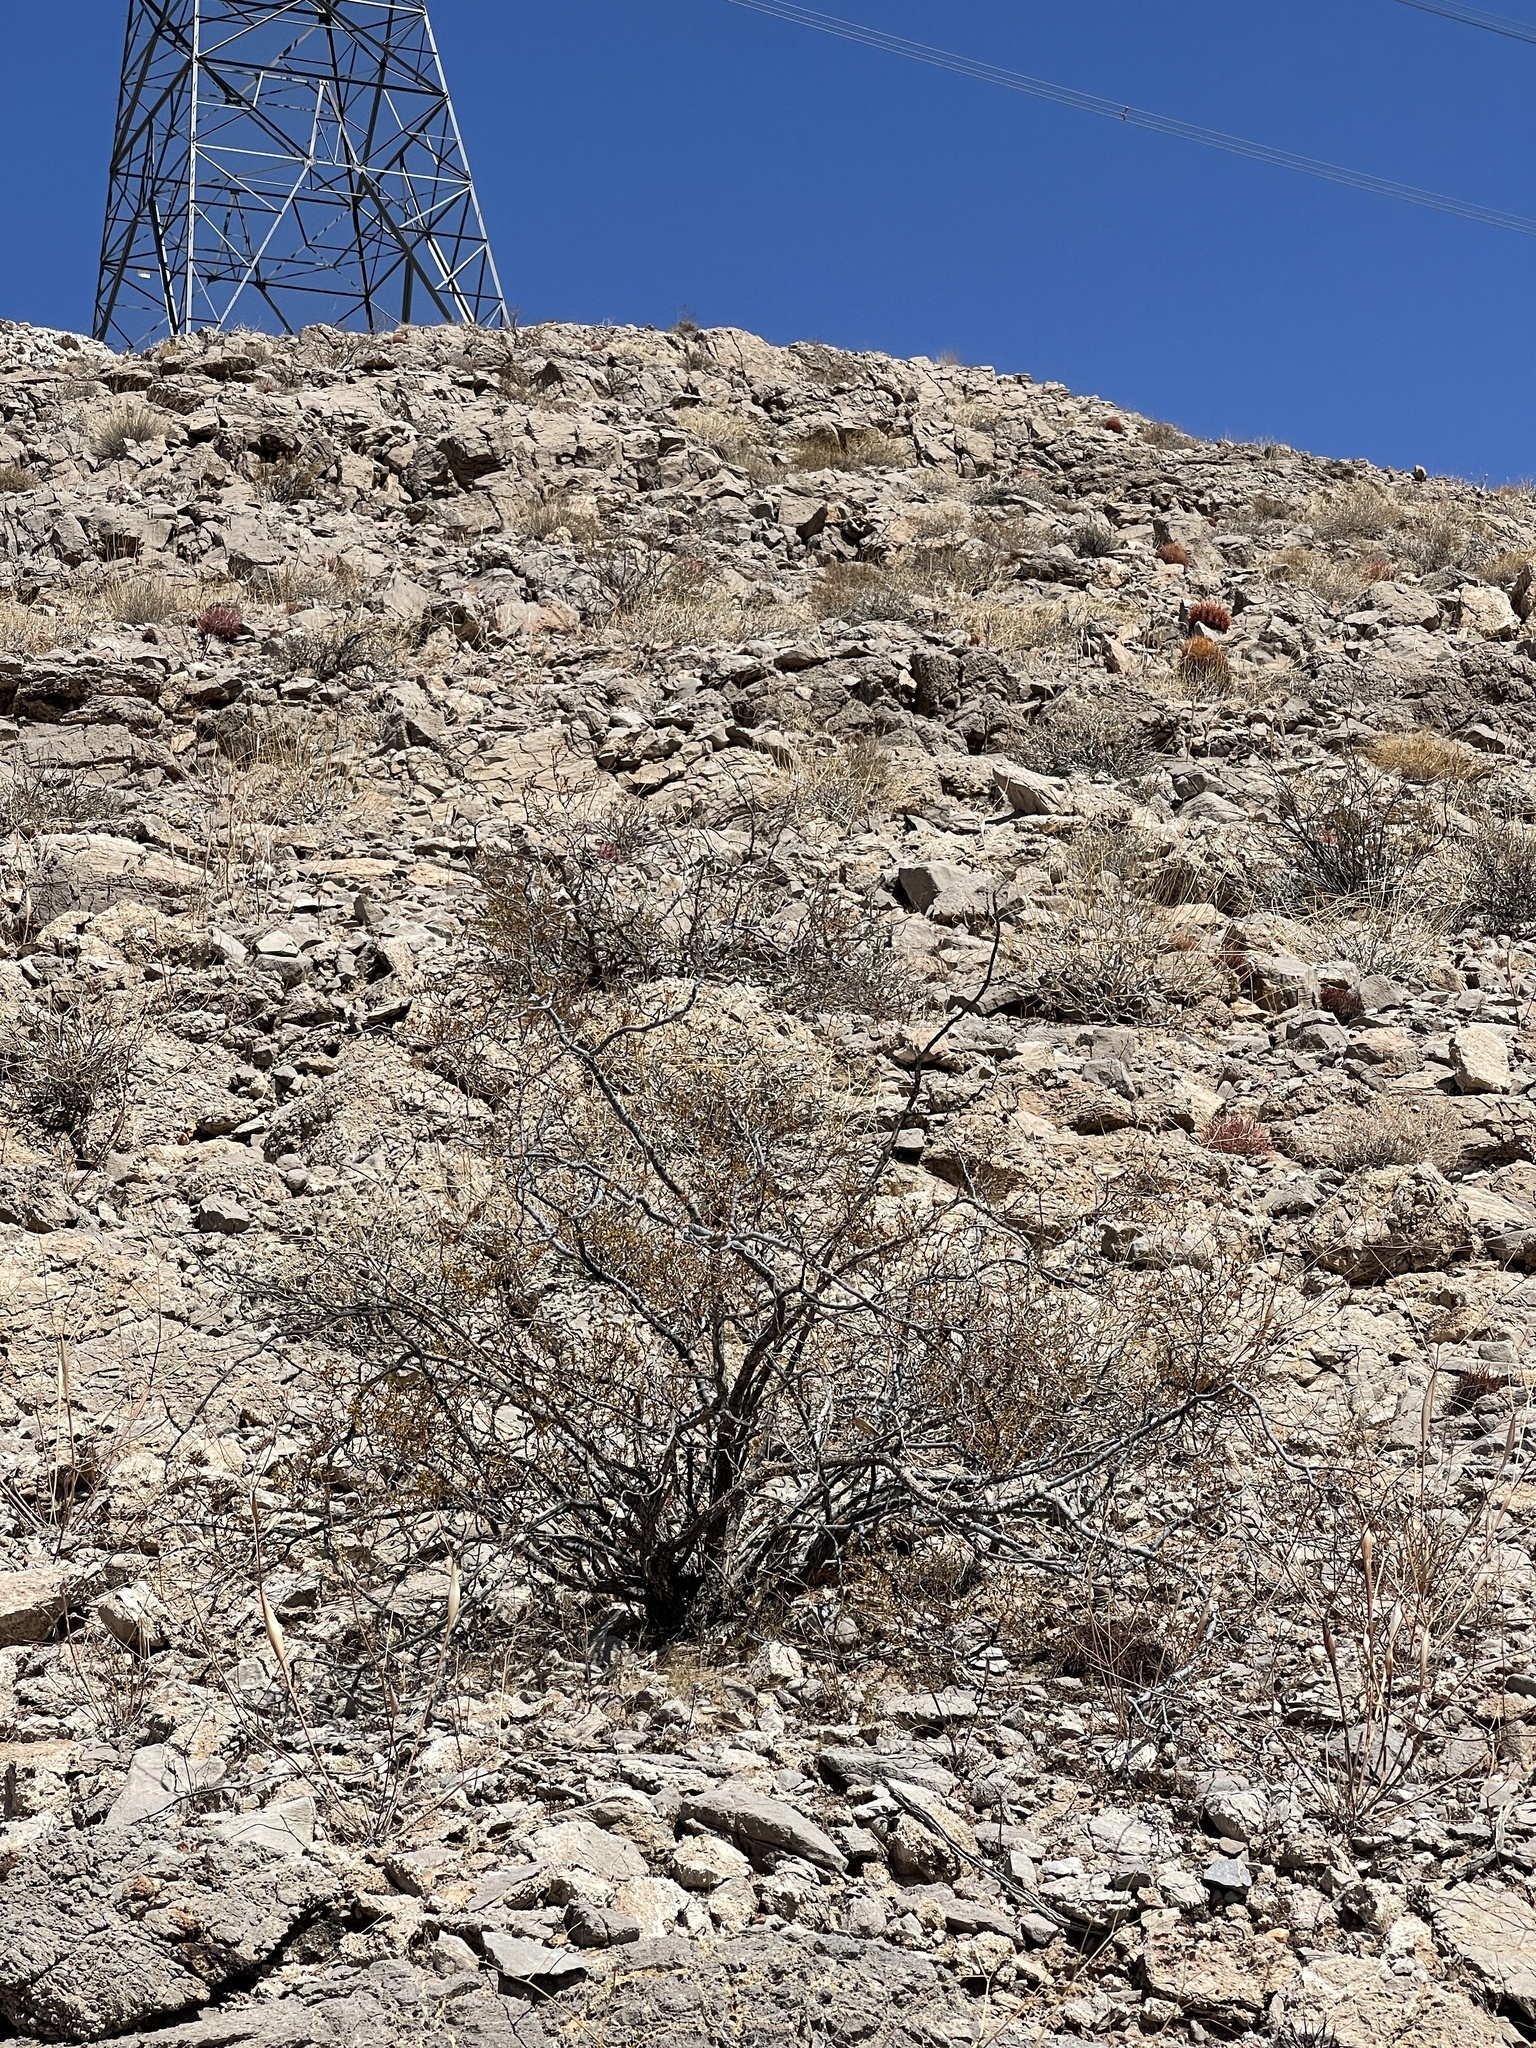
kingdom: Plantae
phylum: Tracheophyta
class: Magnoliopsida
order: Zygophyllales
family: Zygophyllaceae
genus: Larrea
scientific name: Larrea tridentata
